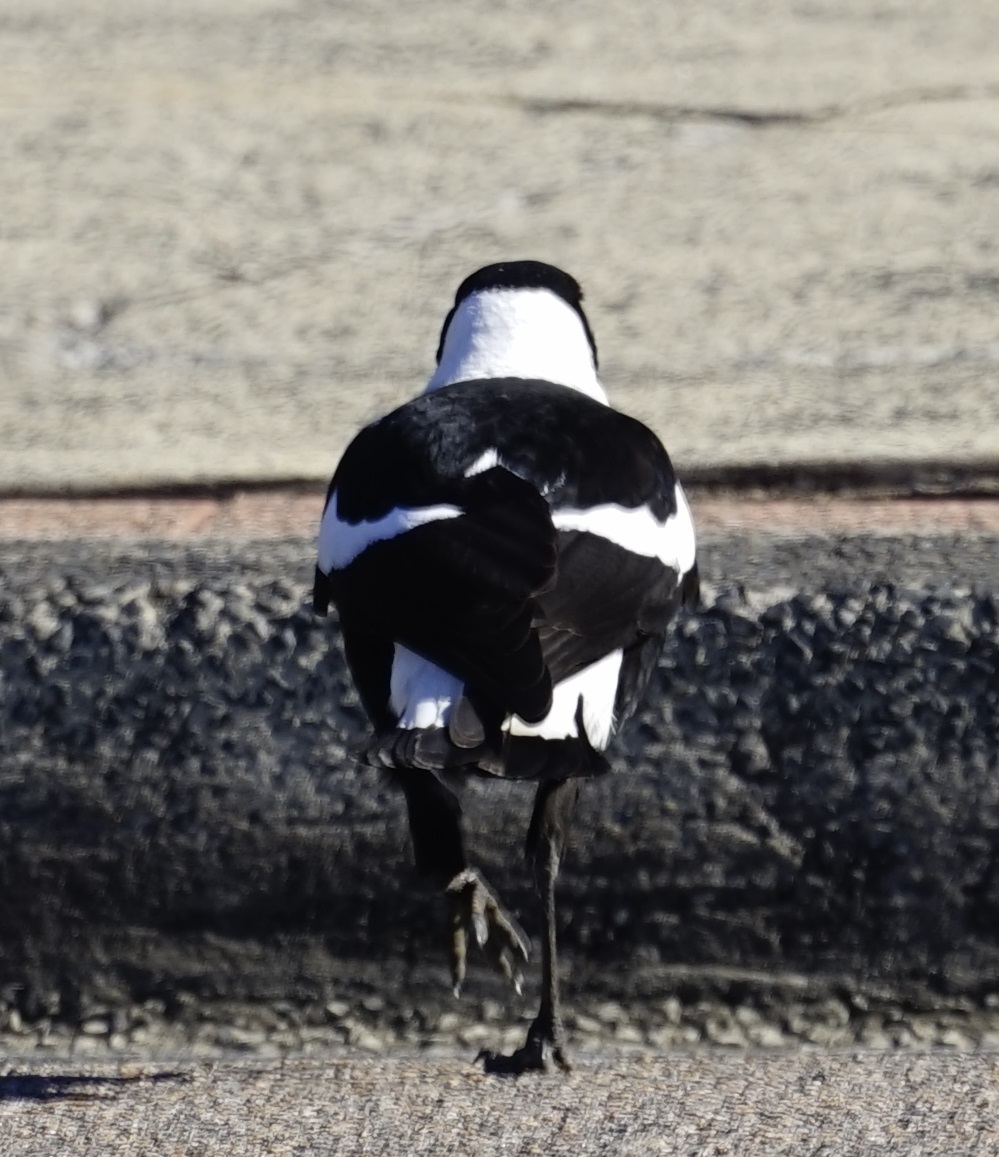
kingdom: Animalia
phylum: Chordata
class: Aves
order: Passeriformes
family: Cracticidae
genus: Gymnorhina
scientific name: Gymnorhina tibicen
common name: Australian magpie
